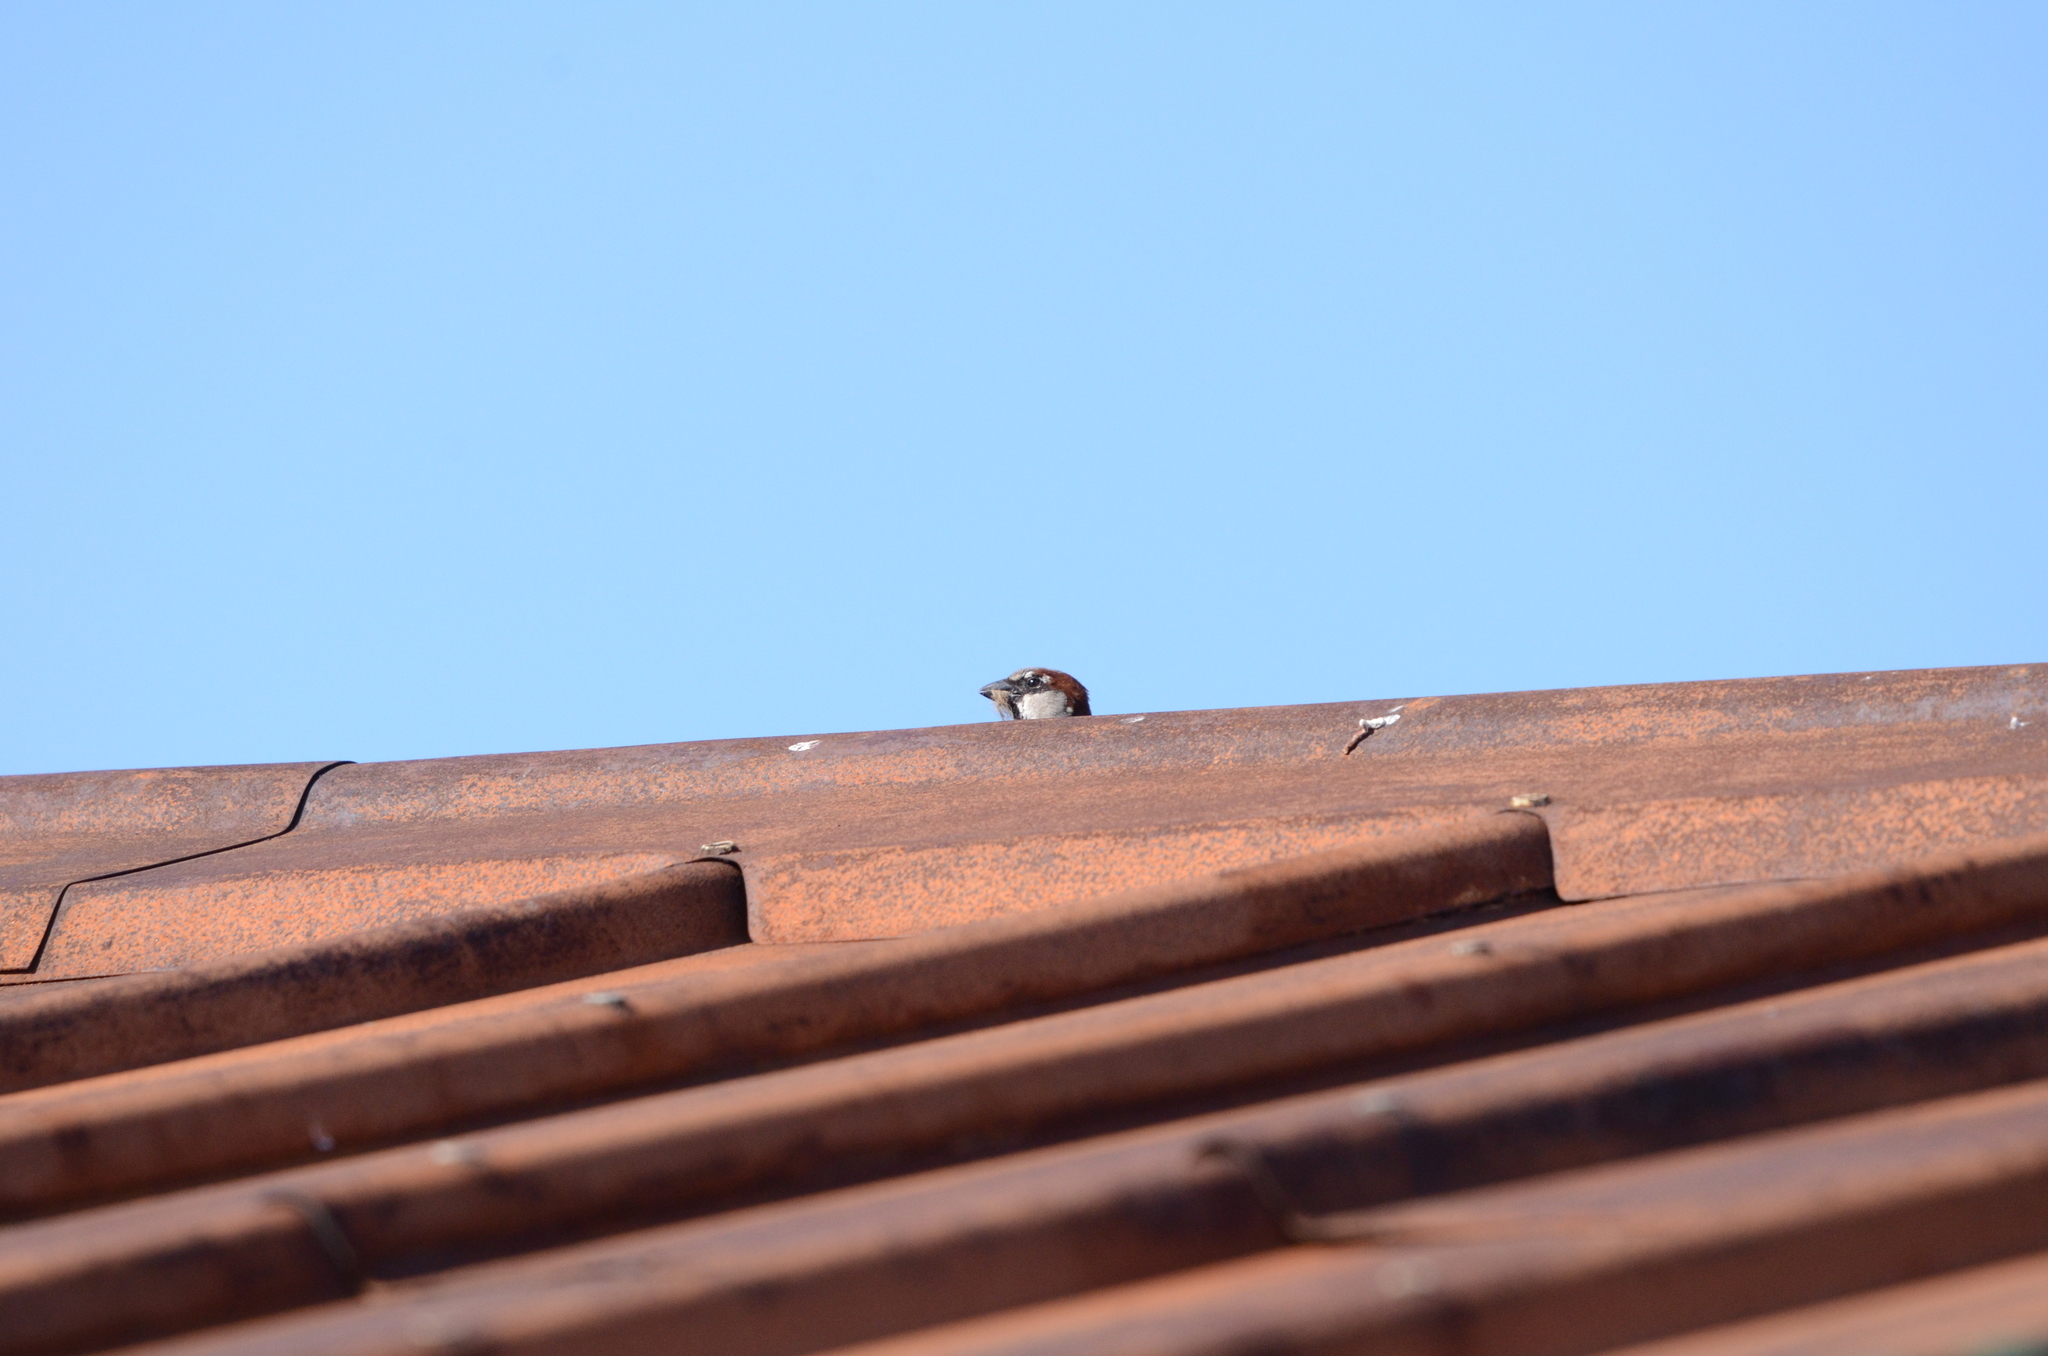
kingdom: Animalia
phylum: Chordata
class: Aves
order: Passeriformes
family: Passeridae
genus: Passer
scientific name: Passer domesticus
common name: House sparrow
